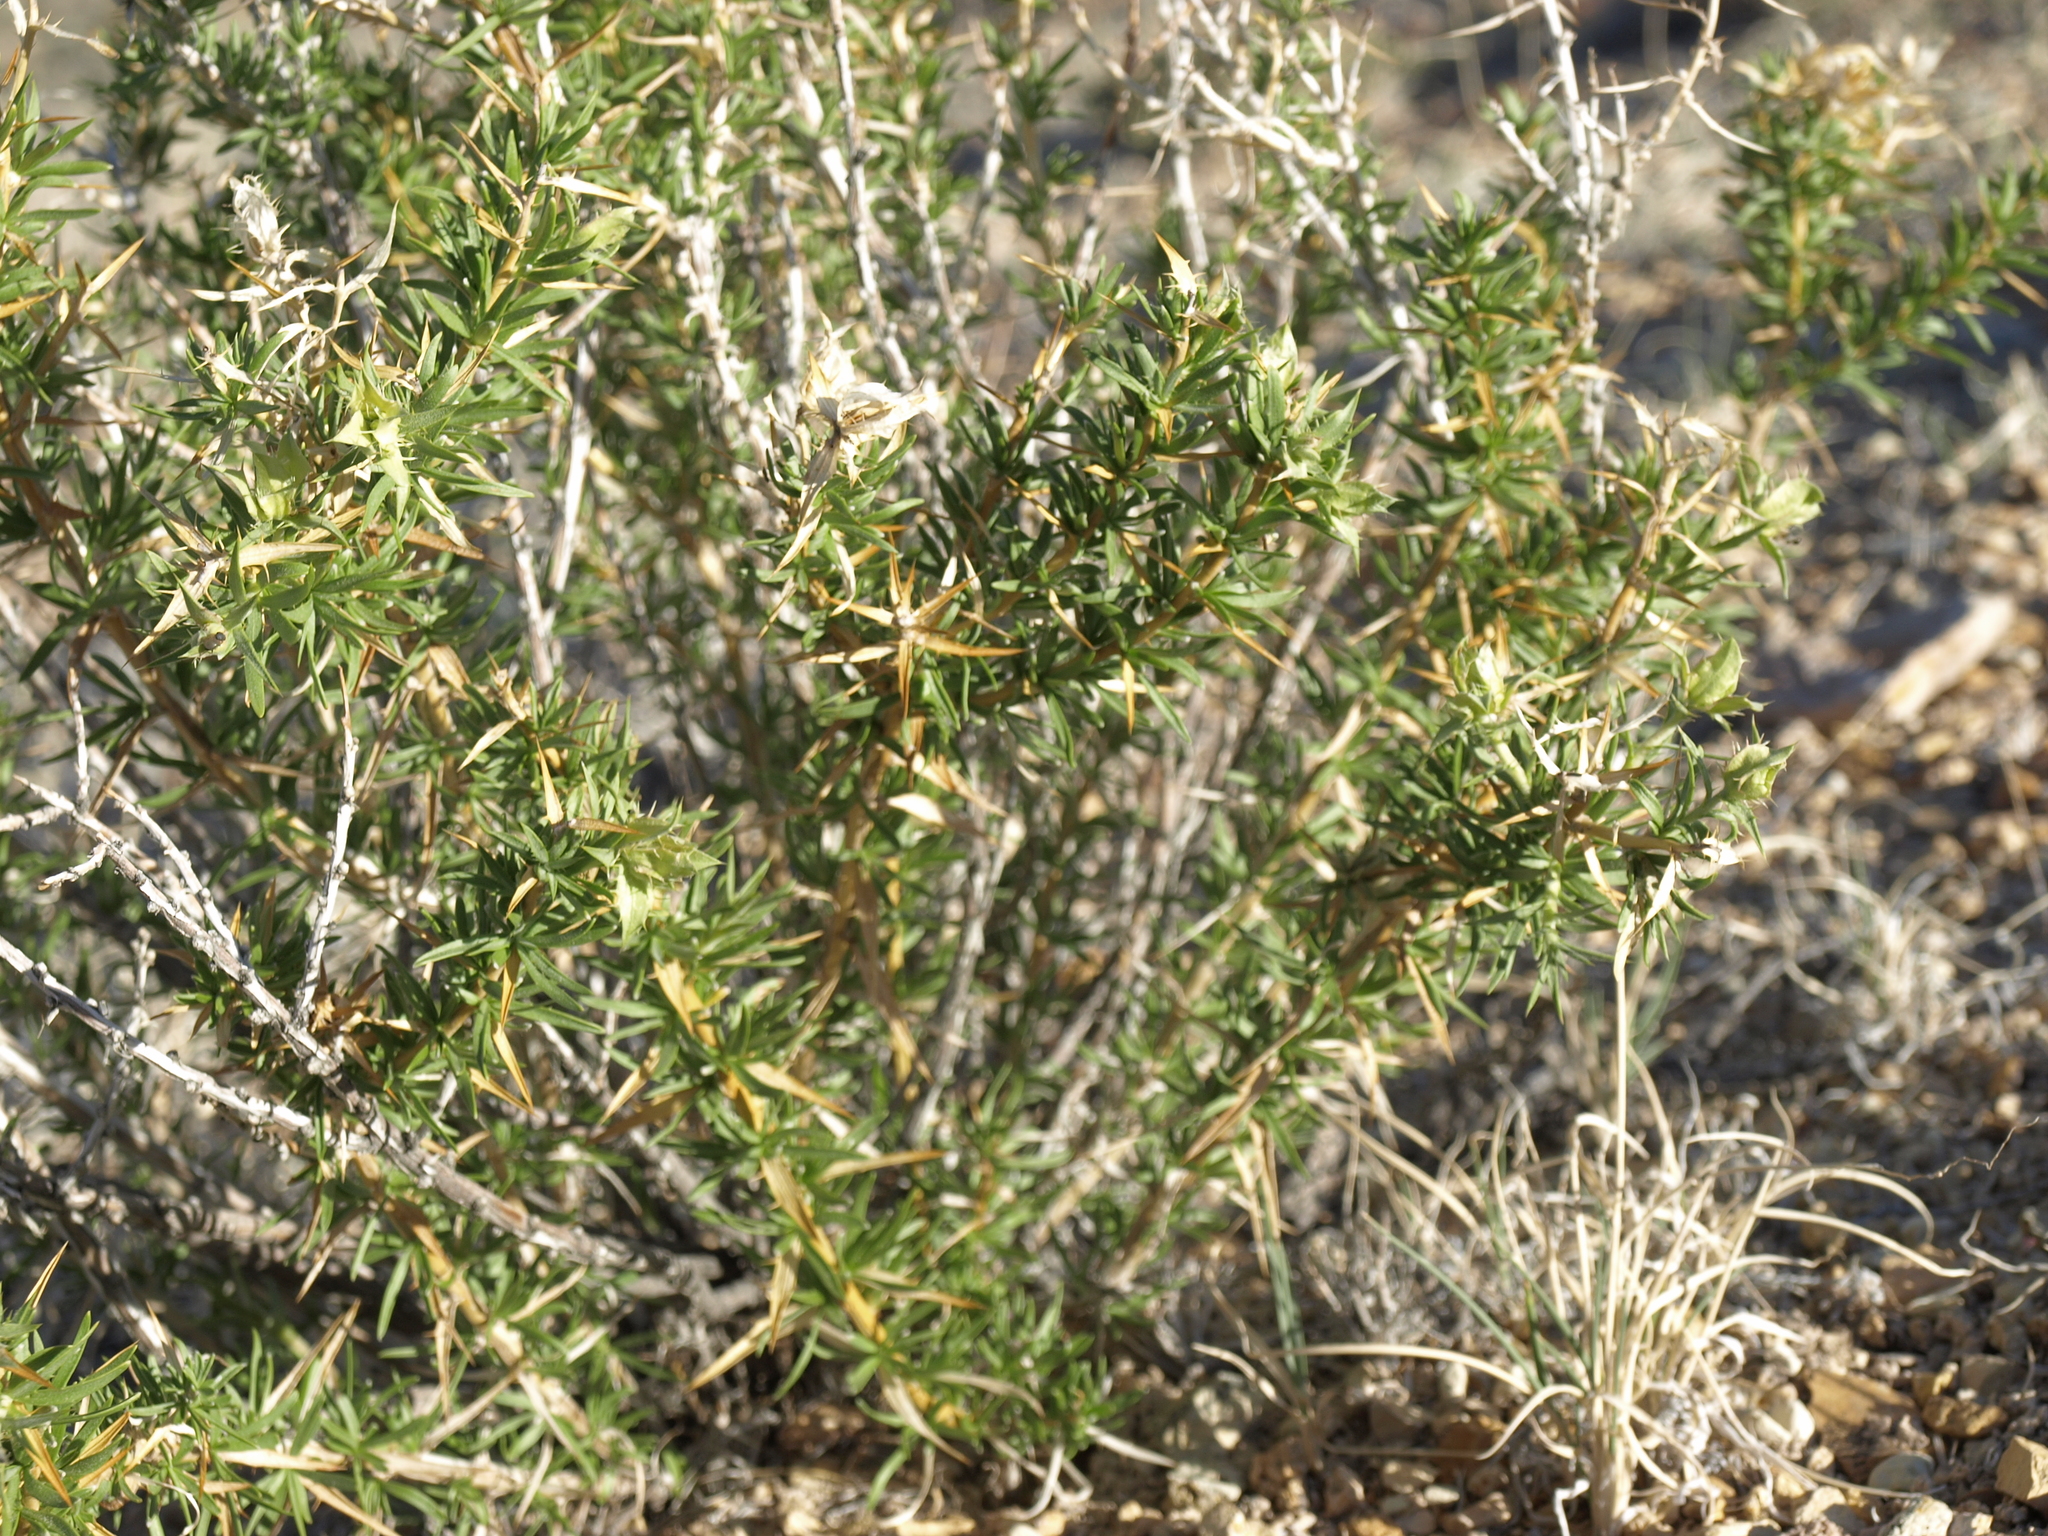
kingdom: Plantae
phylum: Tracheophyta
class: Magnoliopsida
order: Asterales
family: Asteraceae
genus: Hecastocleis
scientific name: Hecastocleis shockleyi
